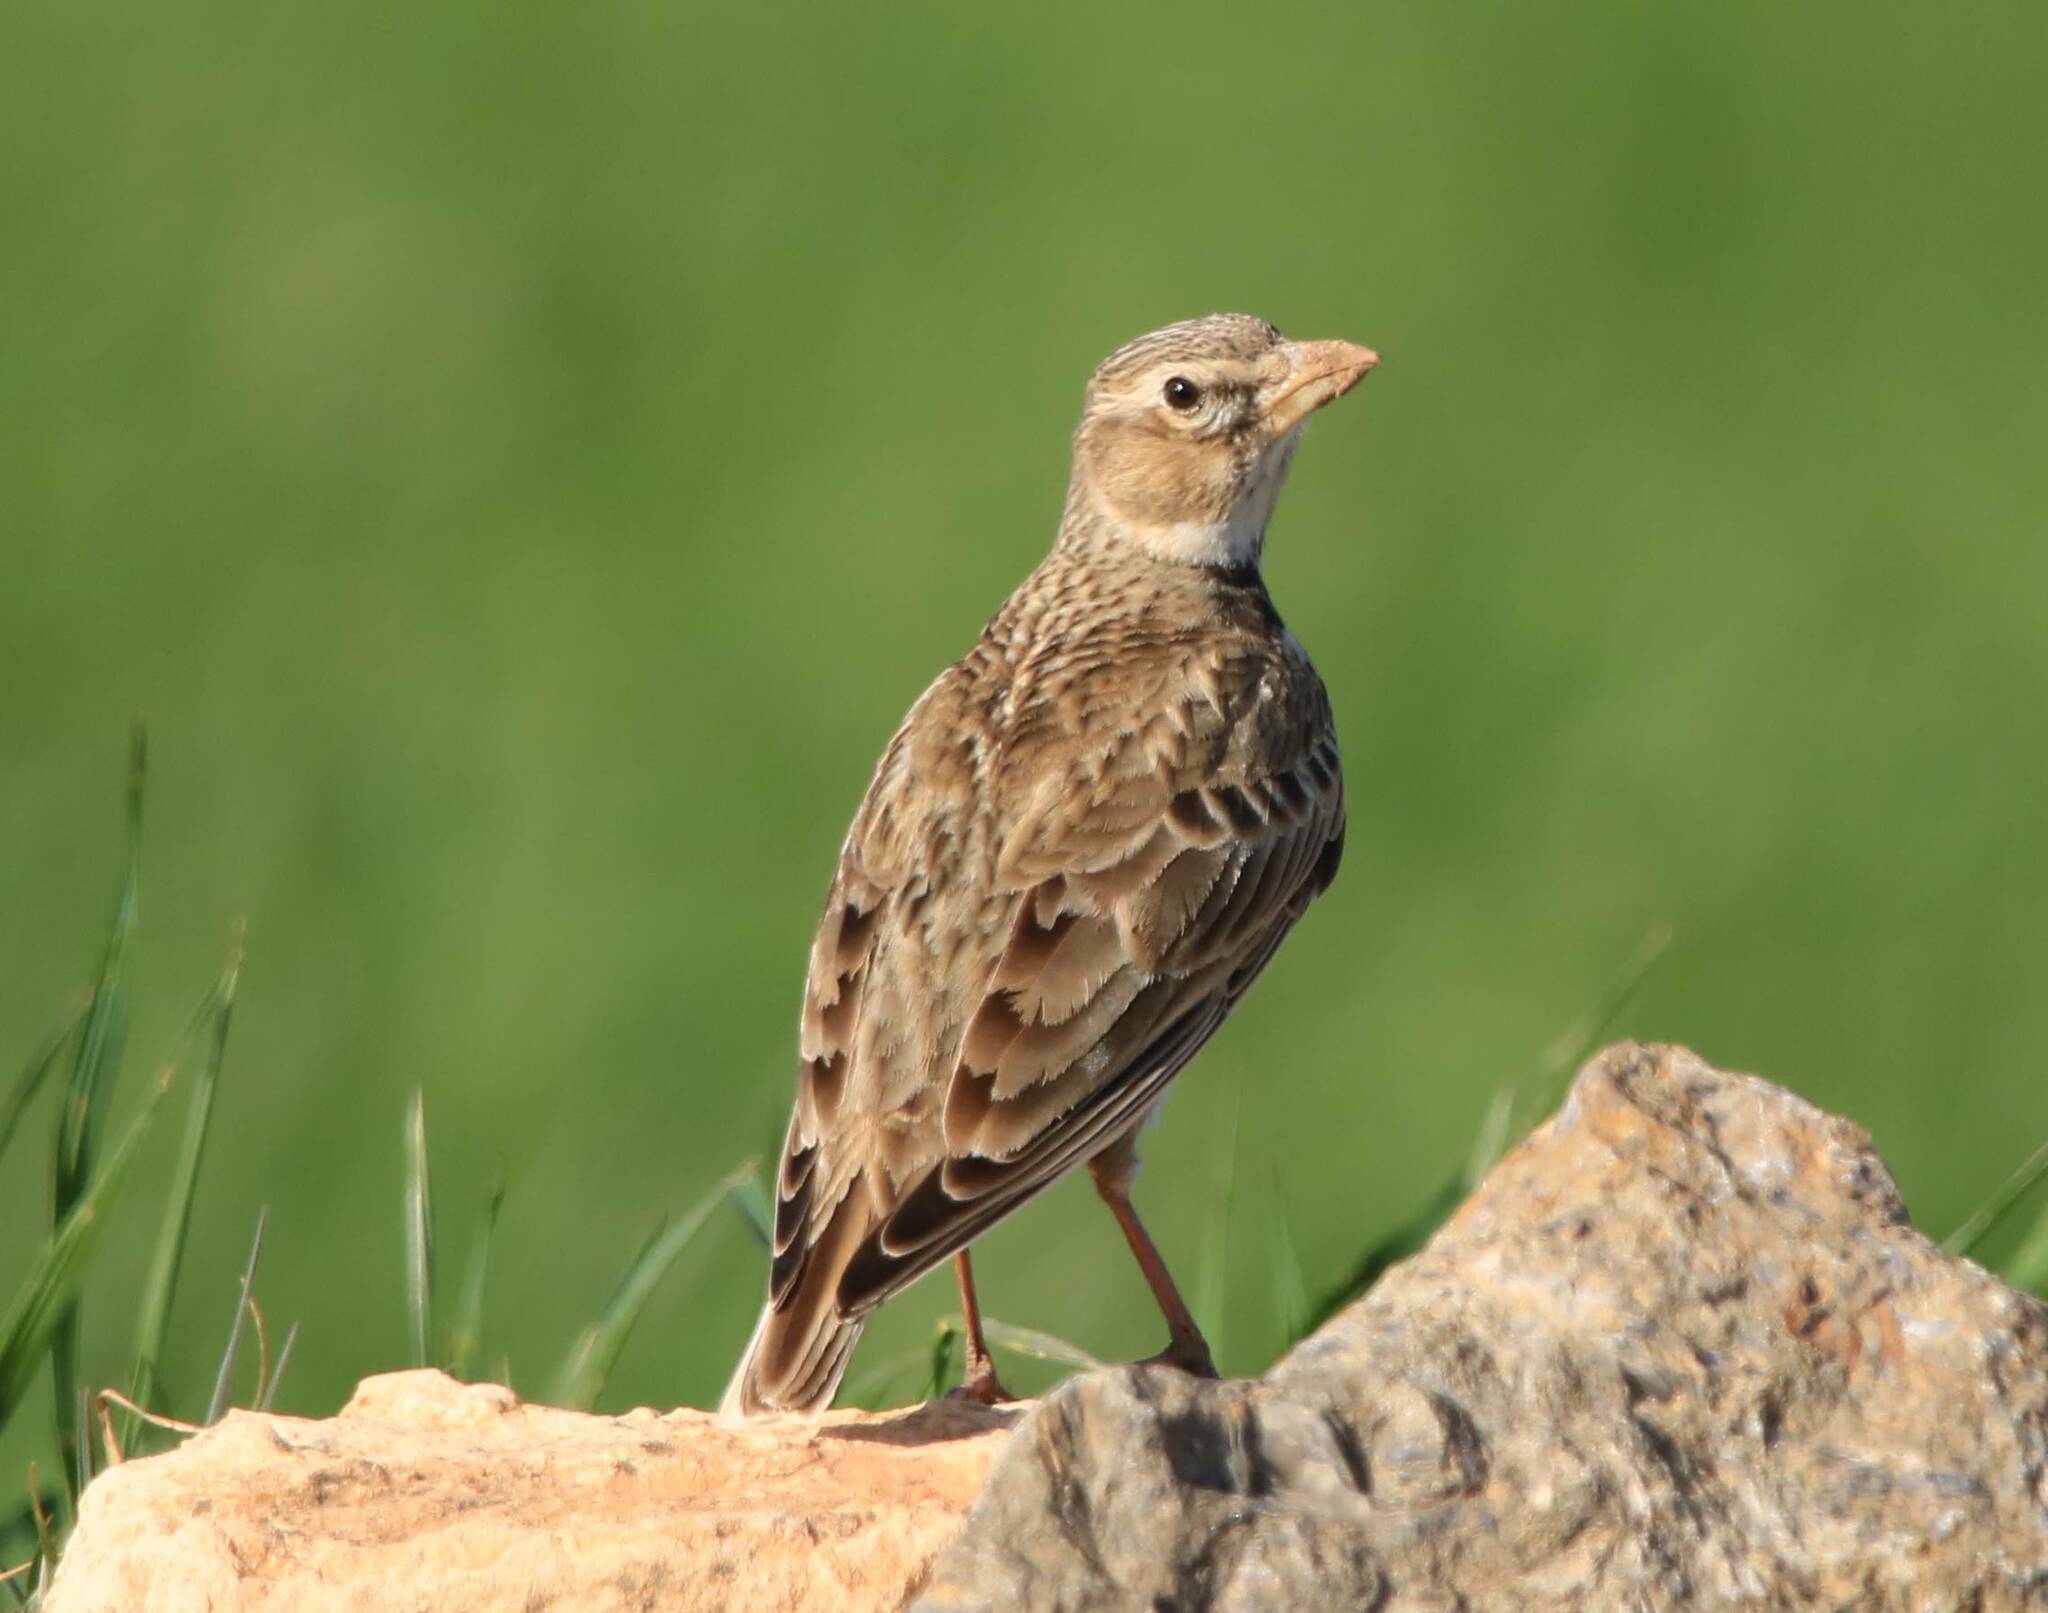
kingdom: Animalia
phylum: Chordata
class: Aves
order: Passeriformes
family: Alaudidae
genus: Melanocorypha
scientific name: Melanocorypha calandra
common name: Calandra lark
